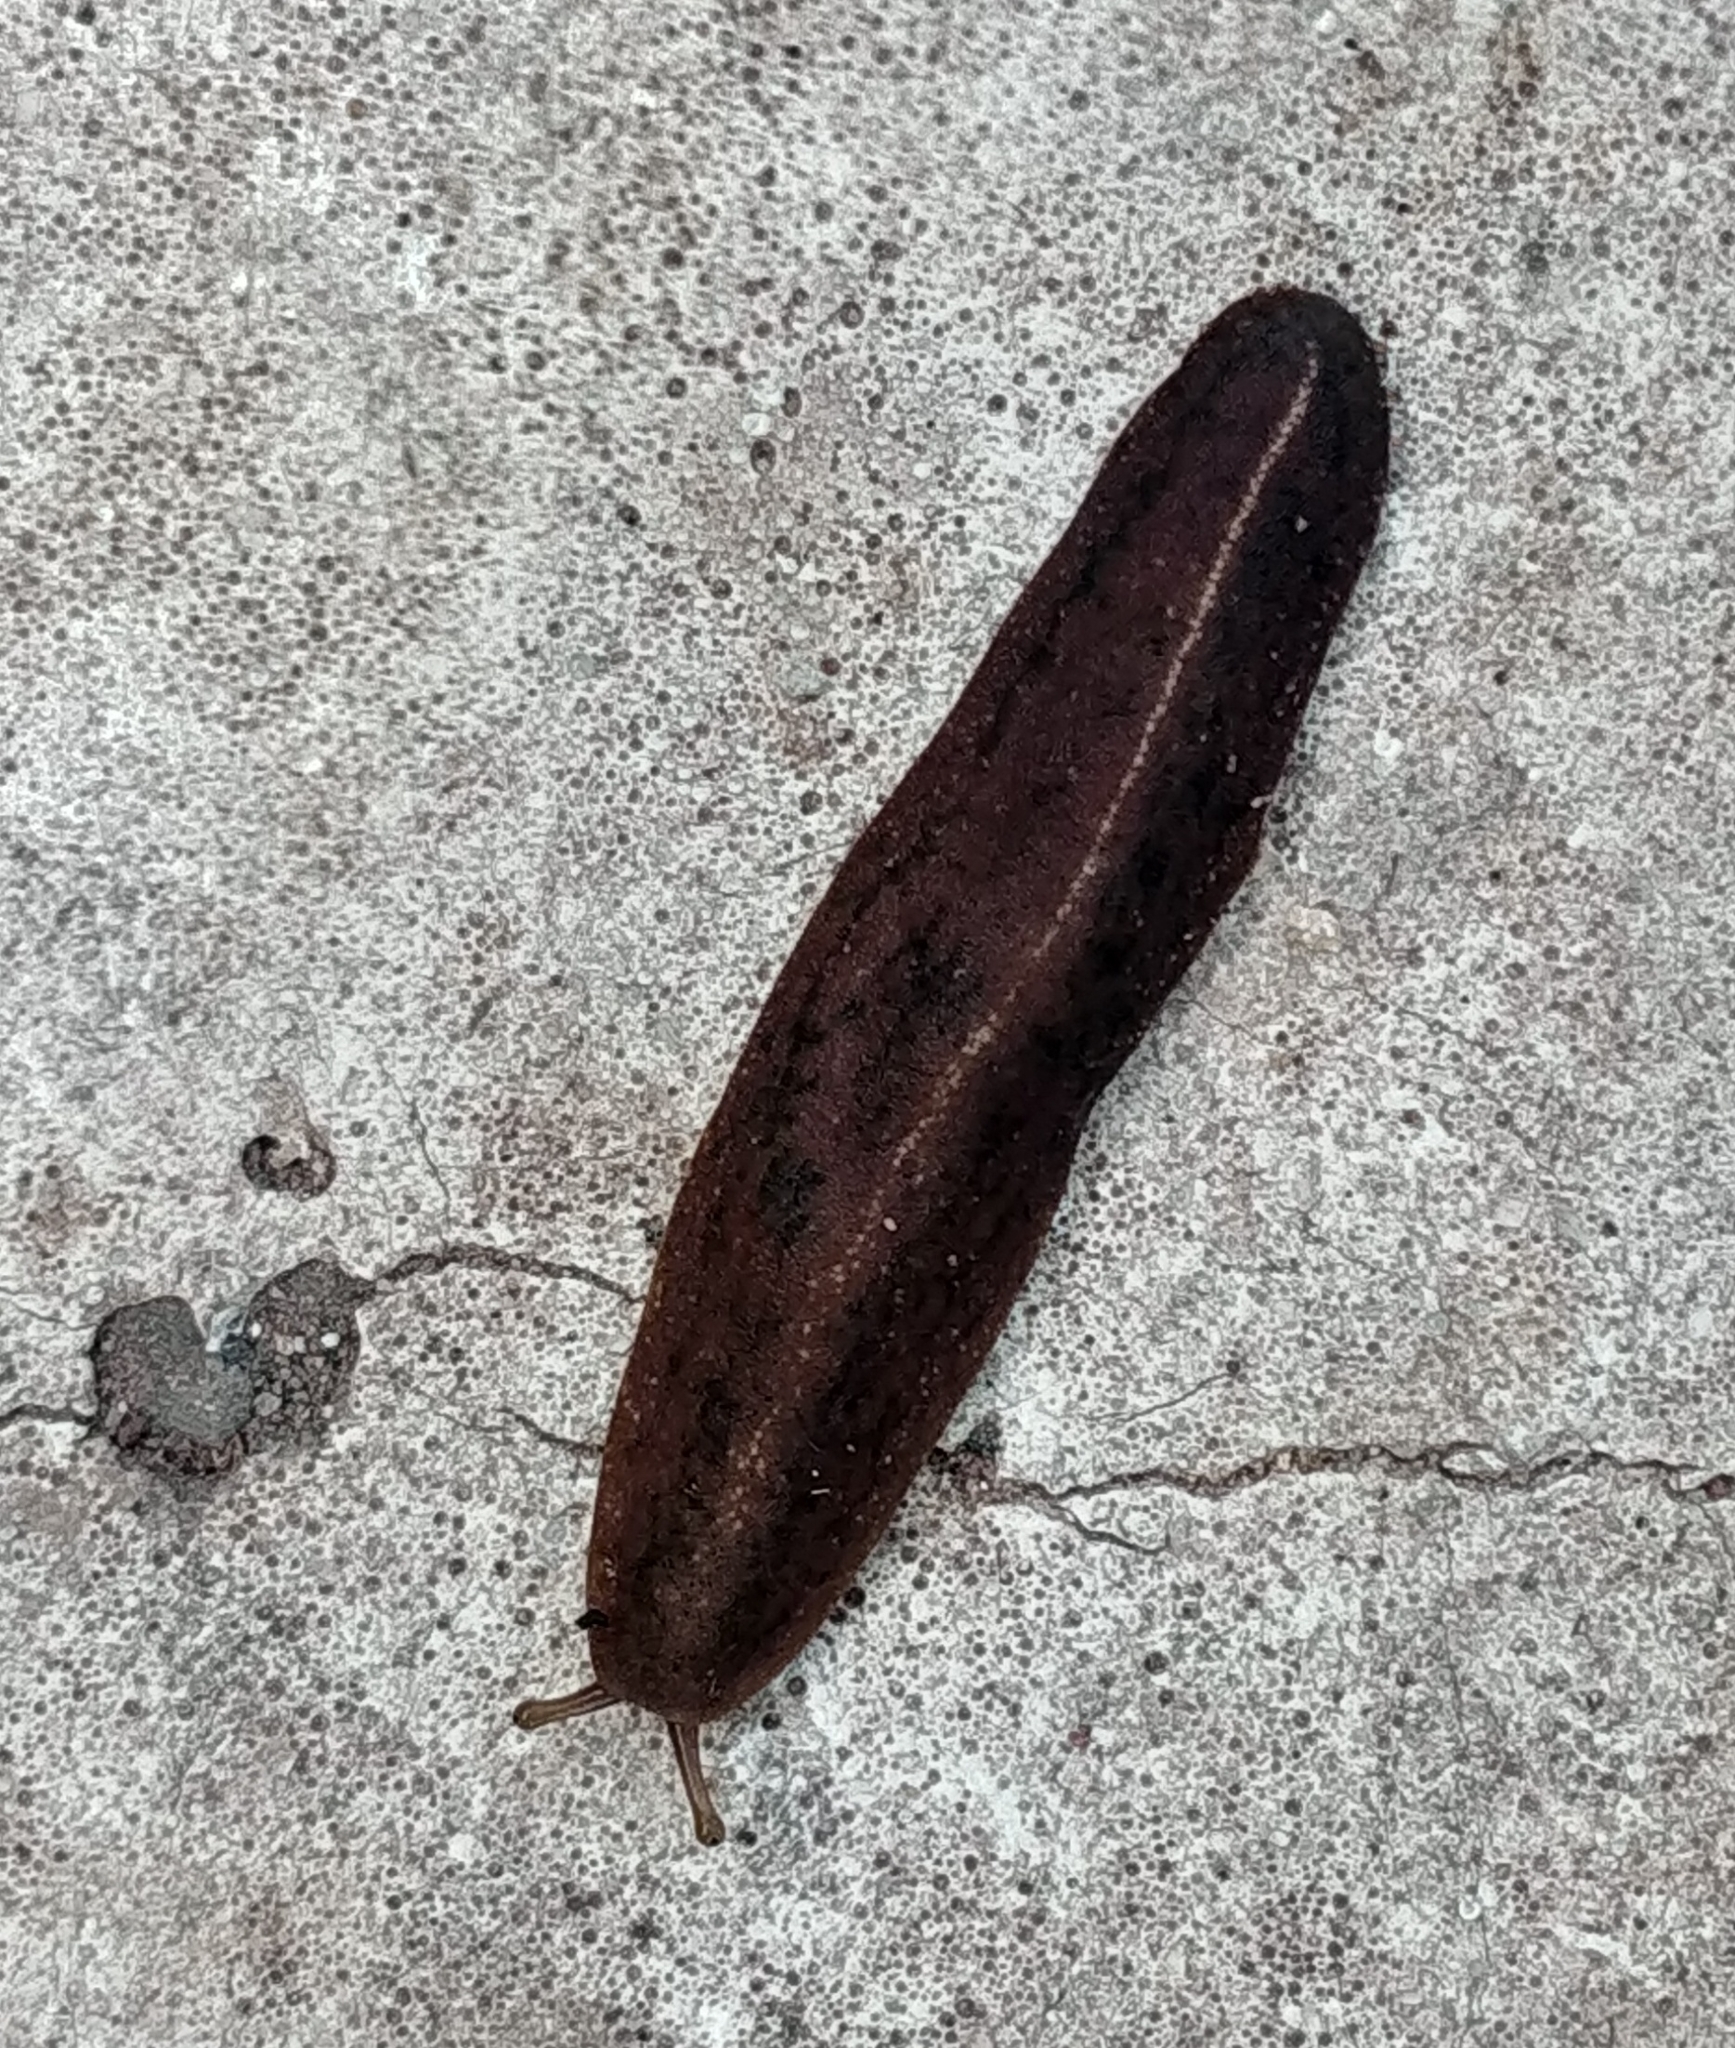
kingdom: Animalia
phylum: Mollusca
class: Gastropoda
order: Systellommatophora
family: Veronicellidae
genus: Laevicaulis
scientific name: Laevicaulis alte
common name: Tropical leatherleaf
